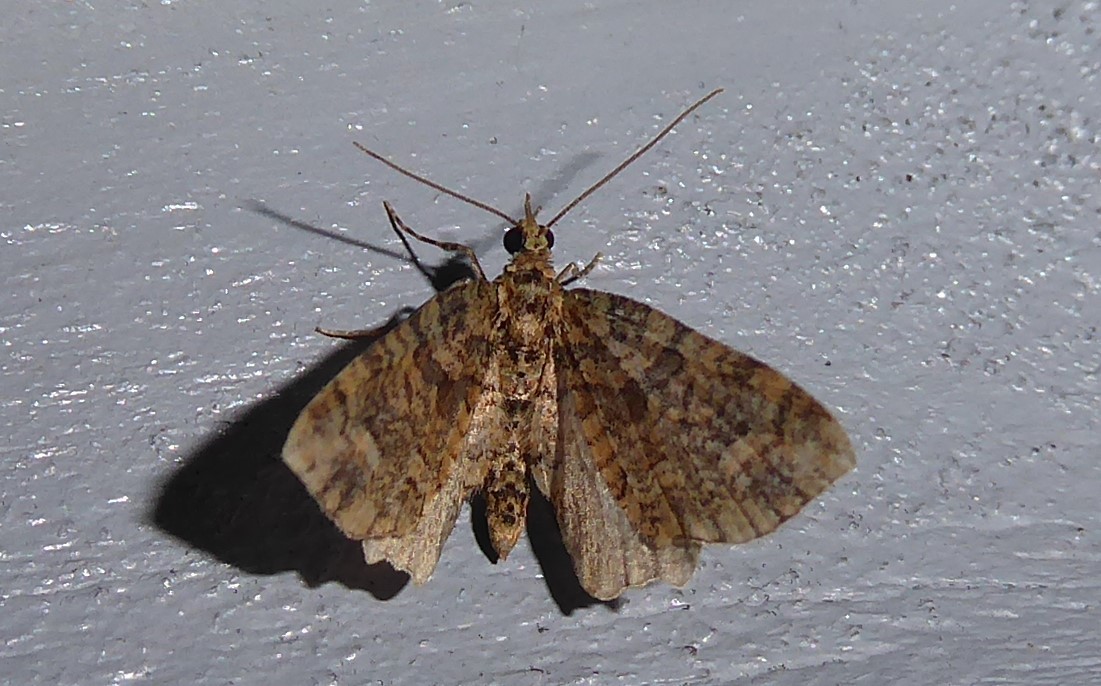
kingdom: Animalia
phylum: Arthropoda
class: Insecta
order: Lepidoptera
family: Geometridae
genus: Idaea
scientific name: Idaea mutanda
